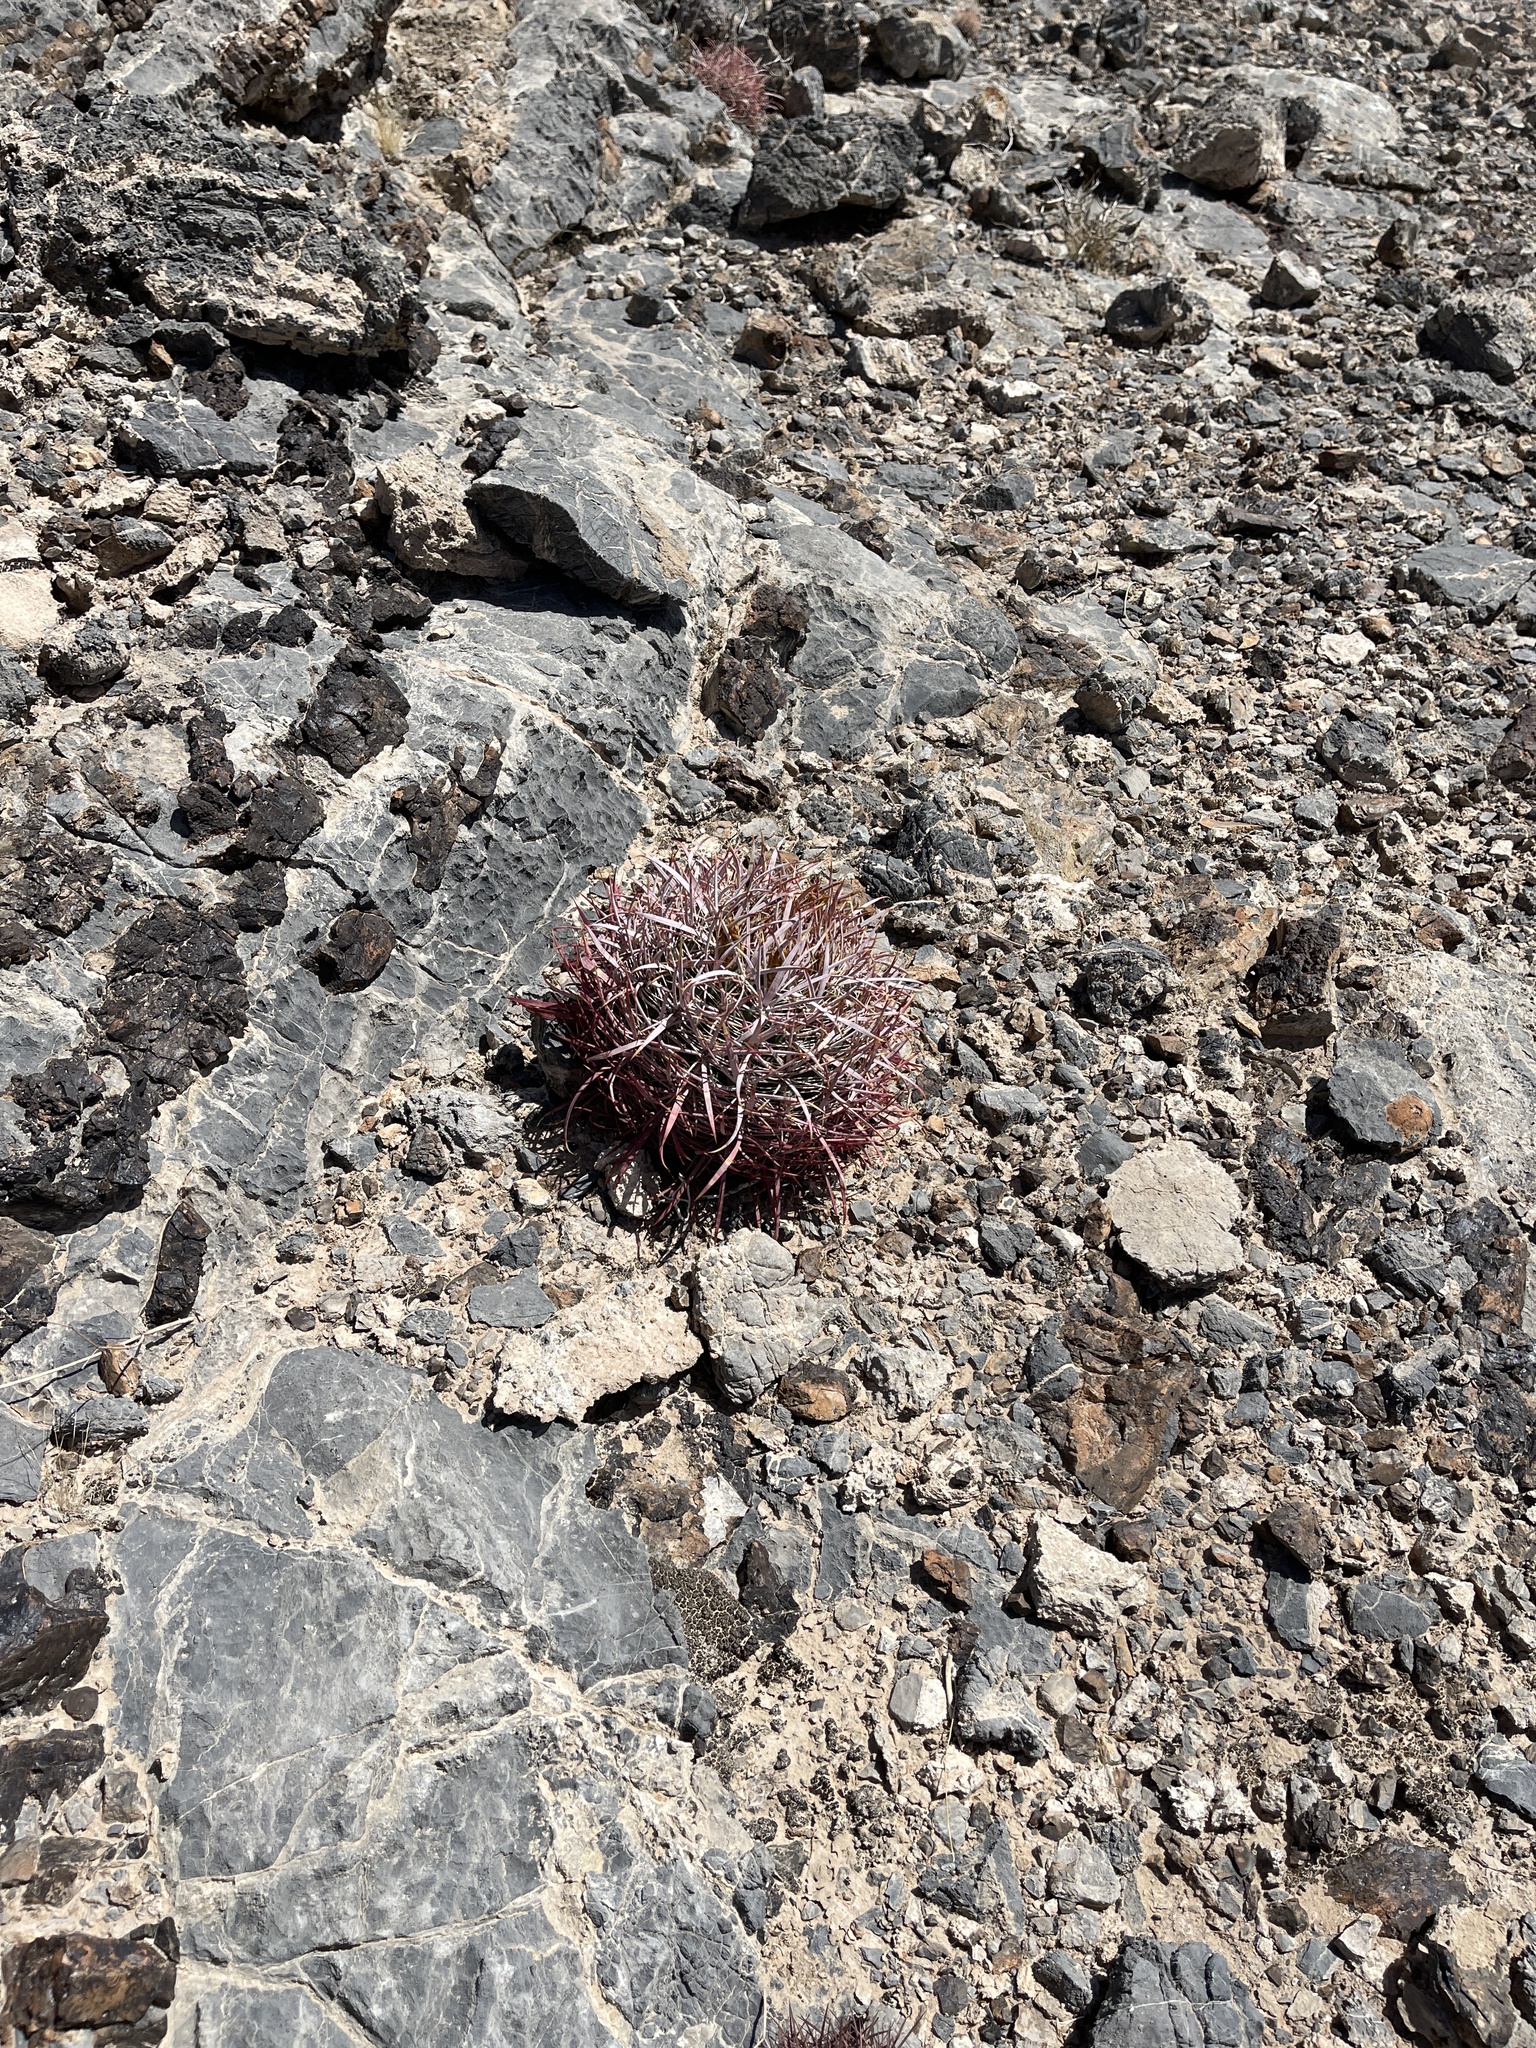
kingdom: Plantae
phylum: Tracheophyta
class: Magnoliopsida
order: Caryophyllales
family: Cactaceae
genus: Sclerocactus
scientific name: Sclerocactus johnsonii
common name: Eight-spine fishhook cactus
